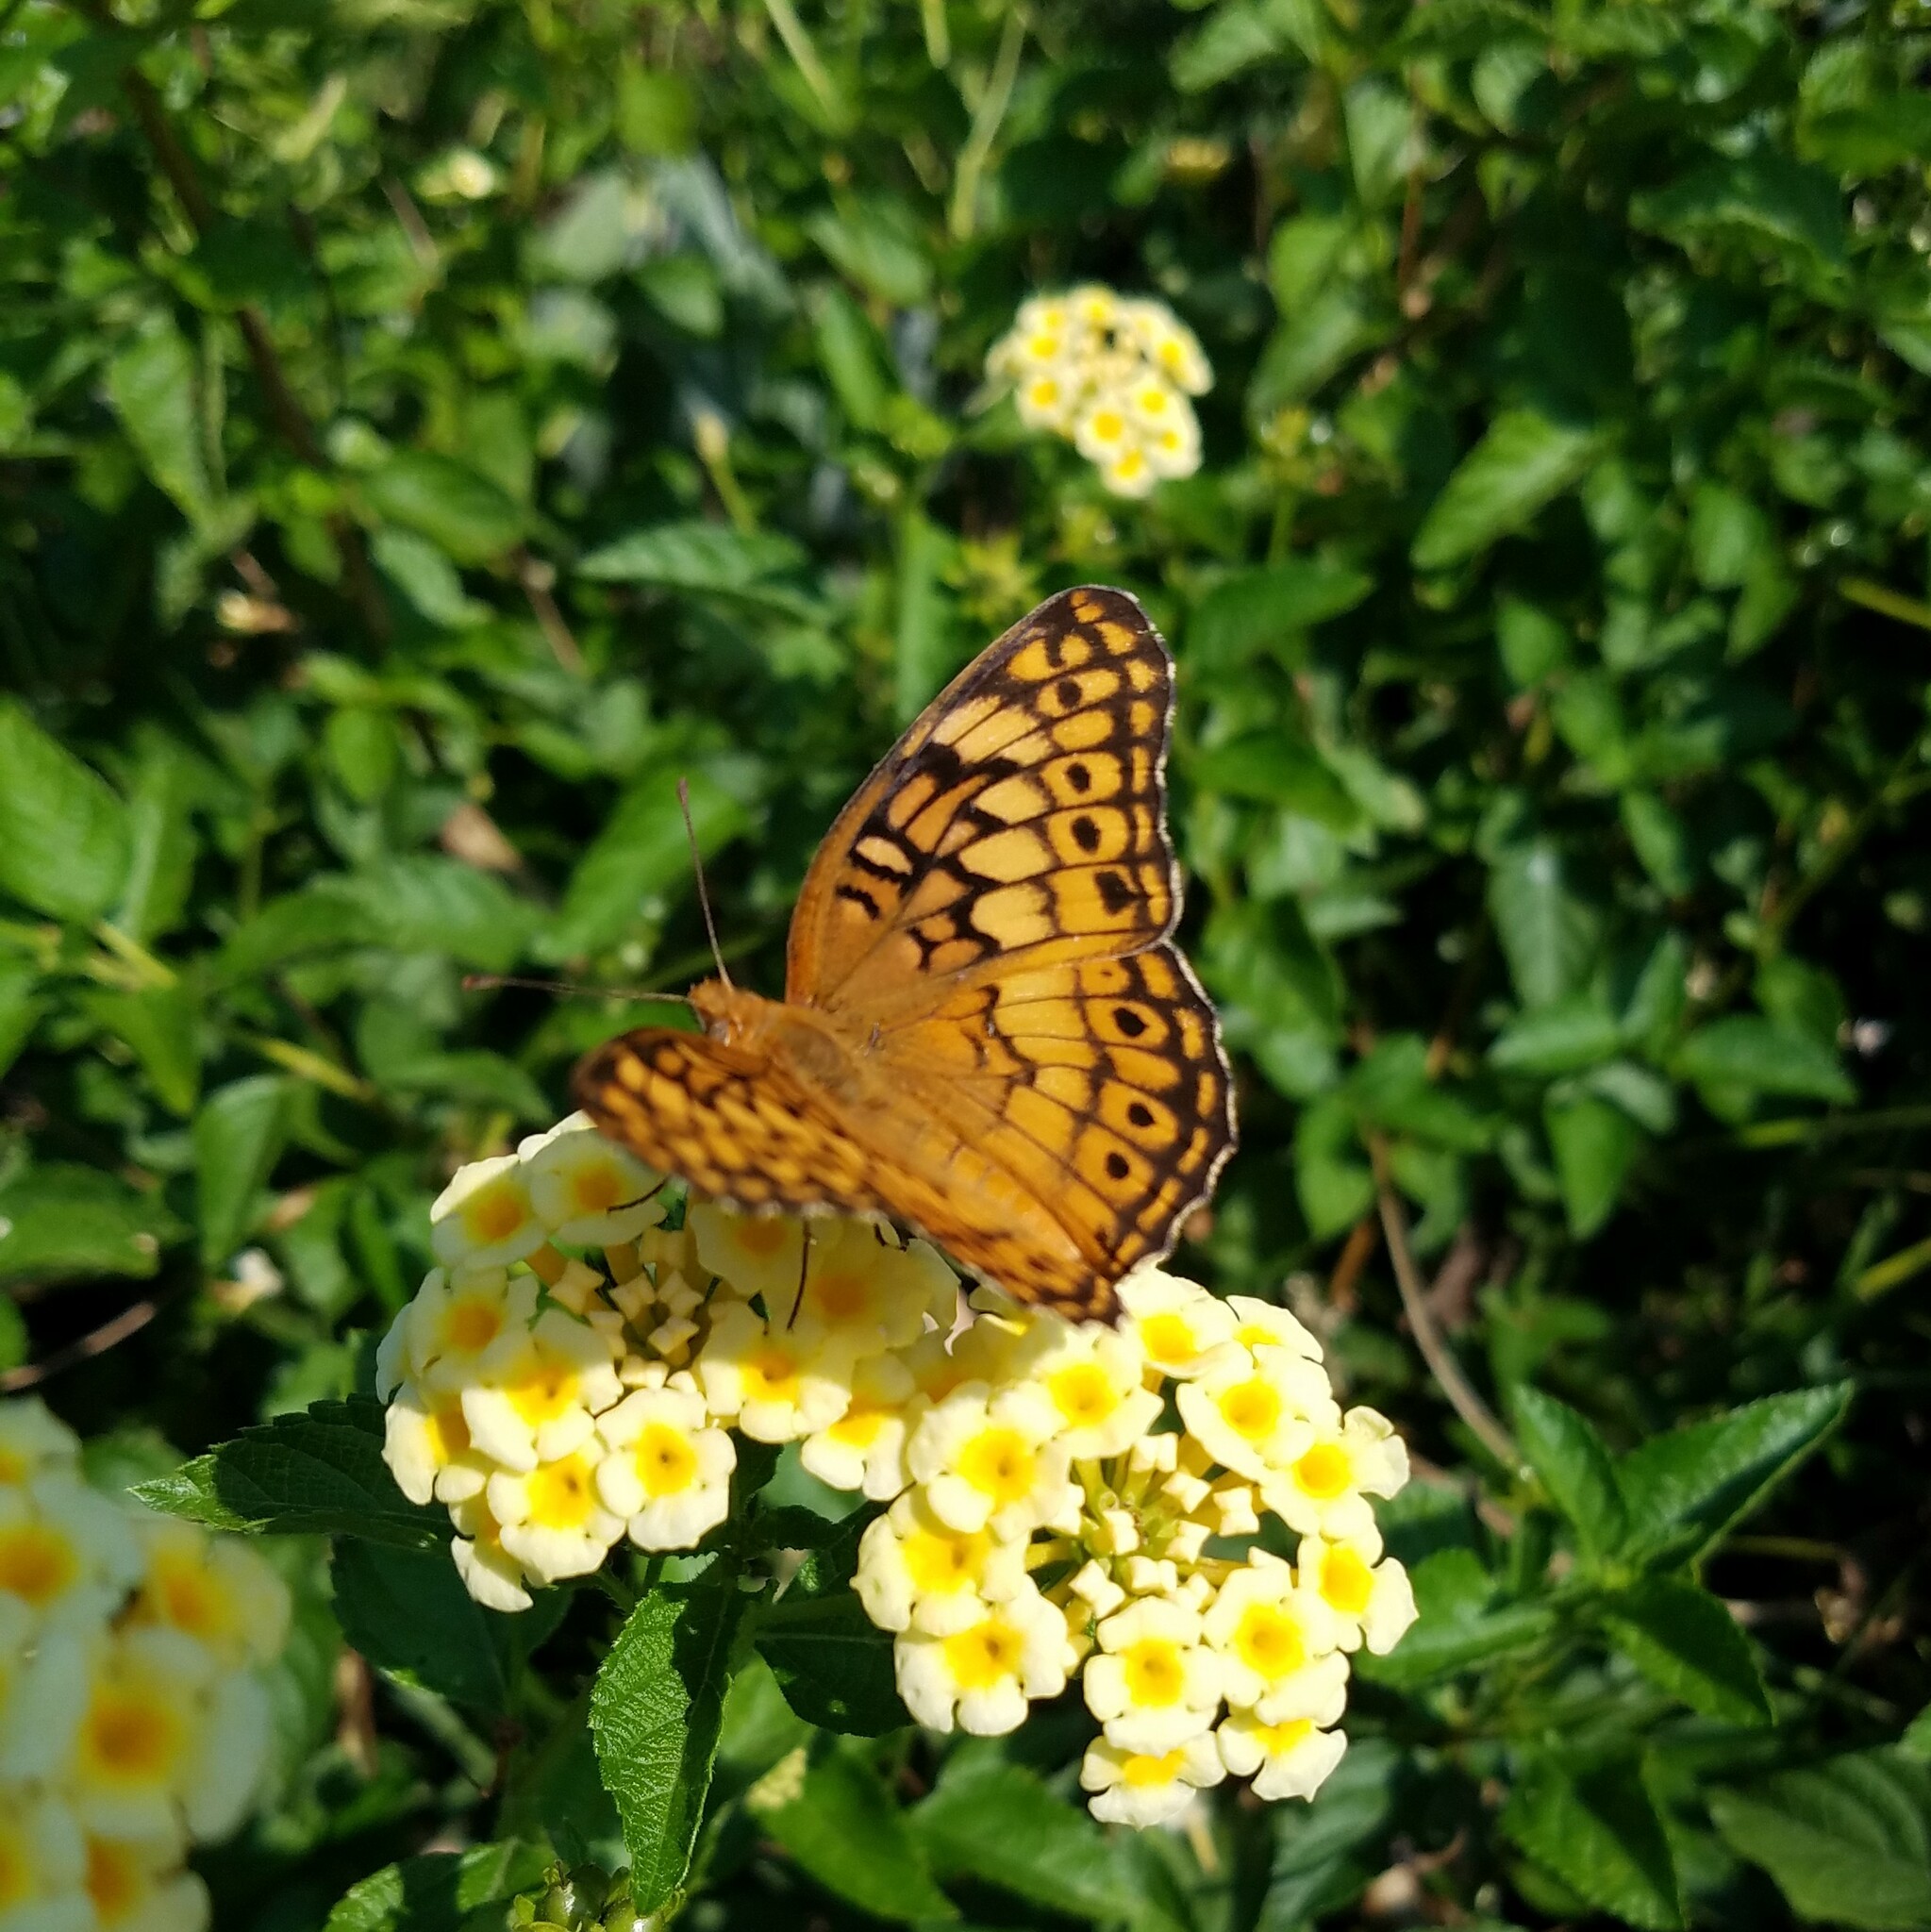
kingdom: Animalia
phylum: Arthropoda
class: Insecta
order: Lepidoptera
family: Nymphalidae
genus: Euptoieta
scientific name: Euptoieta claudia
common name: Variegated fritillary
